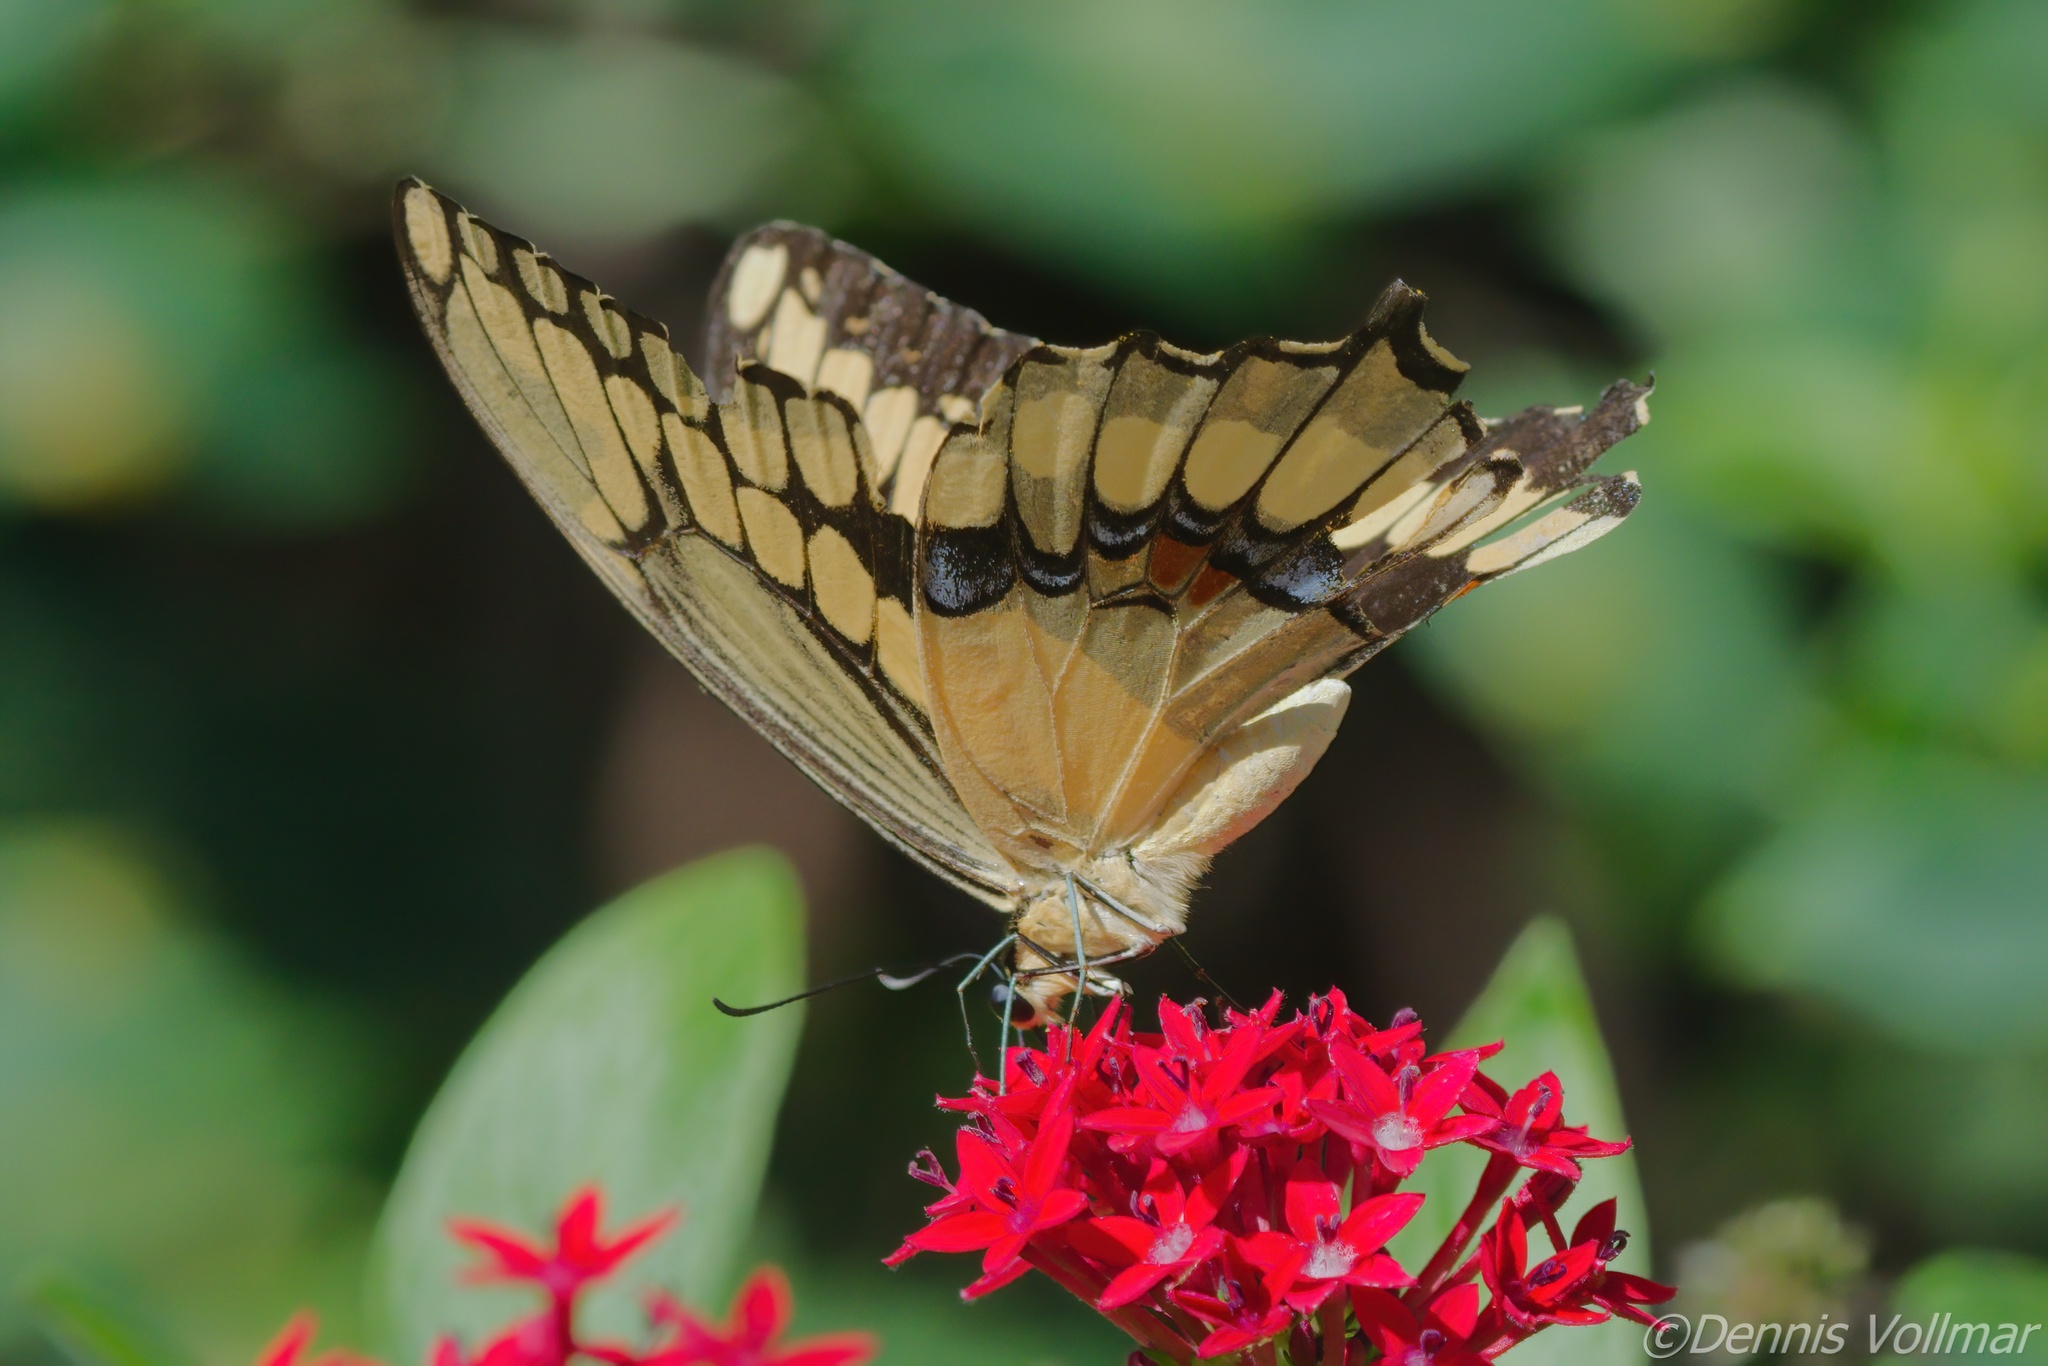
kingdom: Animalia
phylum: Arthropoda
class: Insecta
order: Lepidoptera
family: Papilionidae
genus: Papilio
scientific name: Papilio cresphontes
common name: Giant swallowtail
